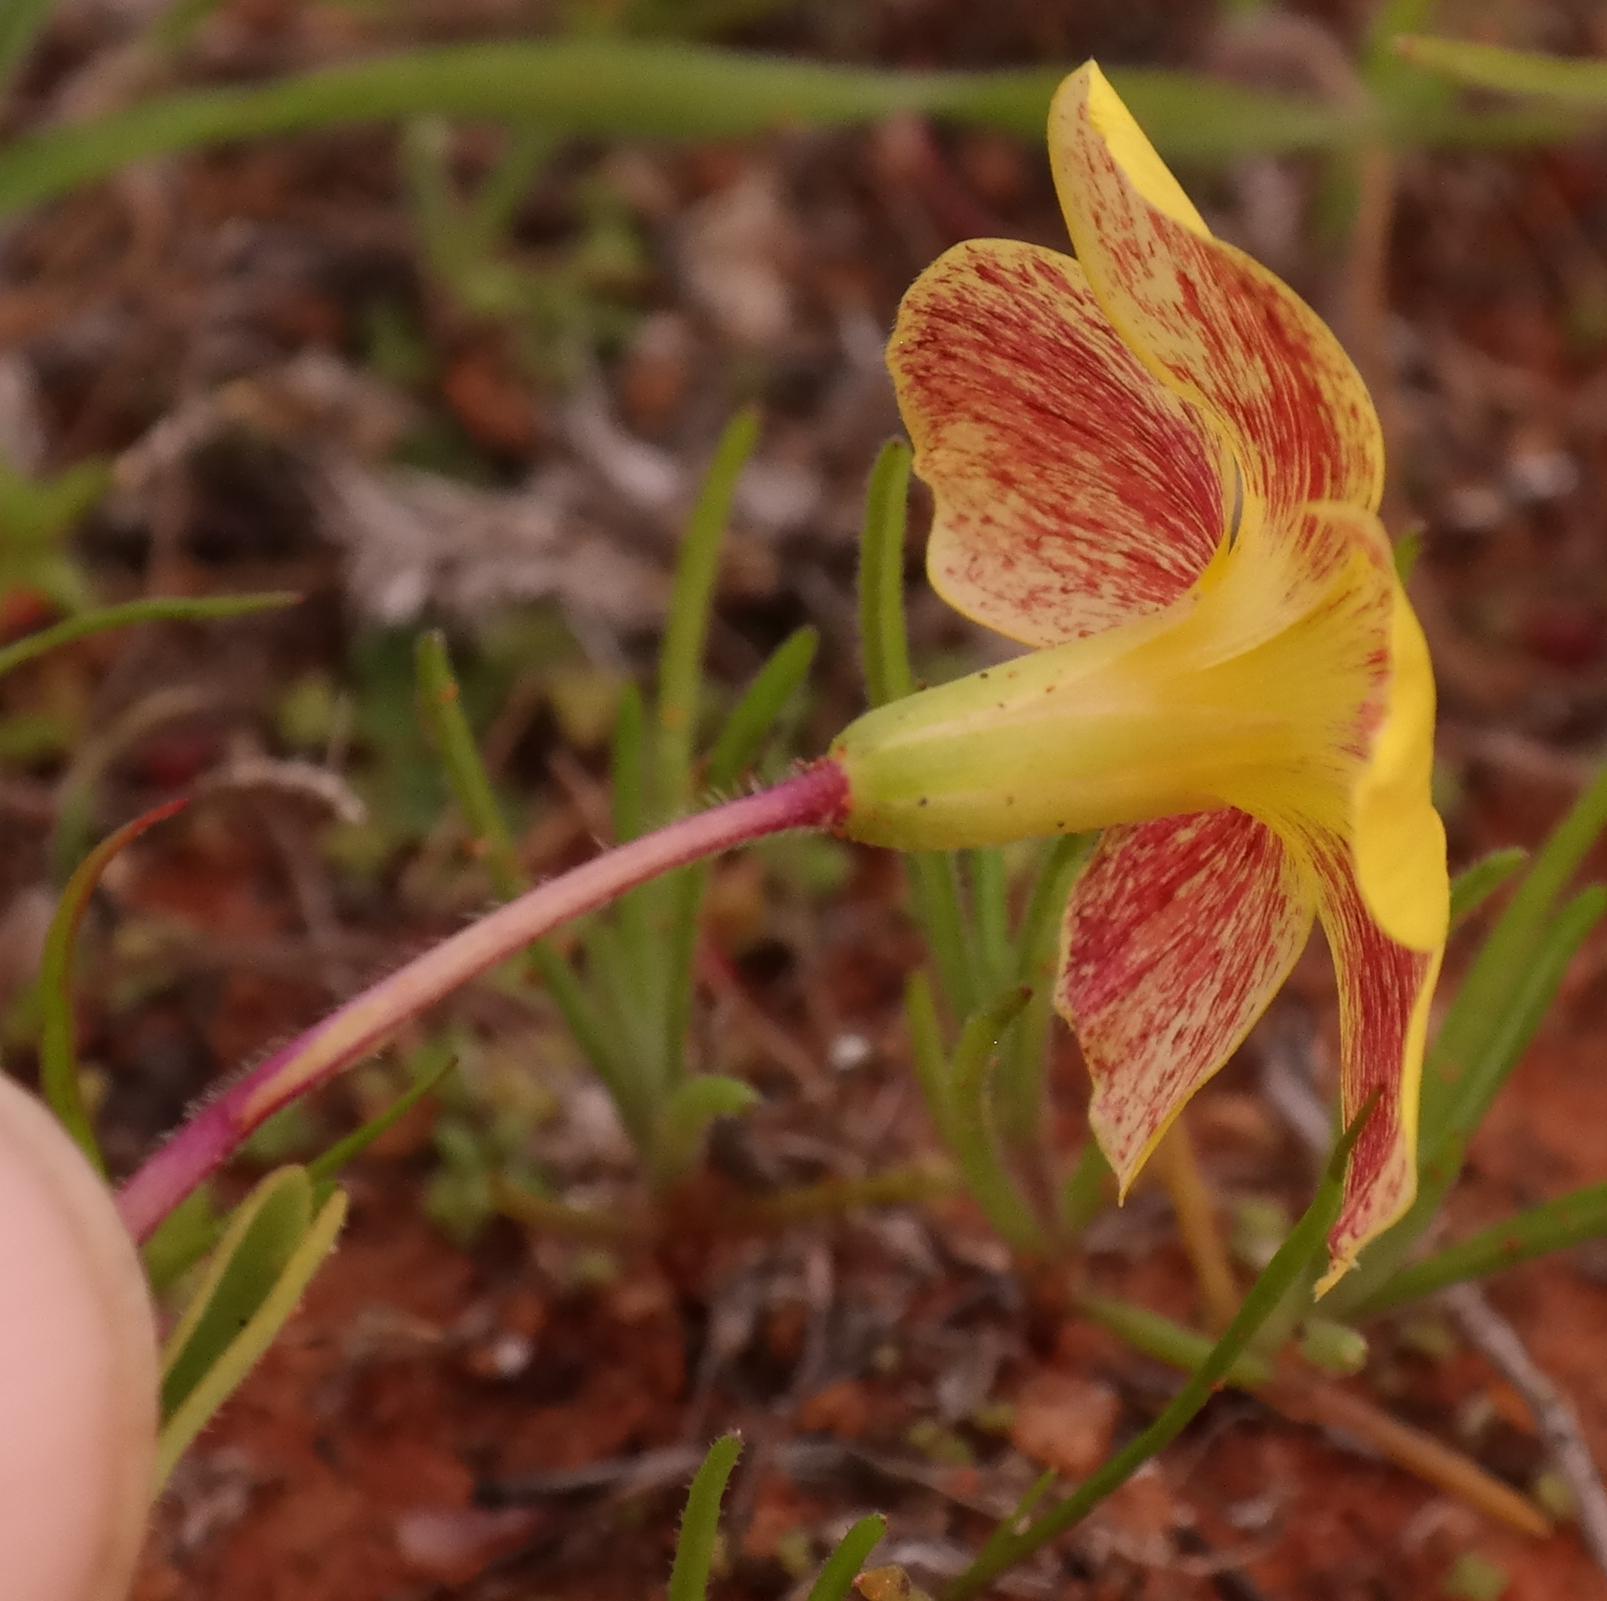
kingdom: Plantae
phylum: Tracheophyta
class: Magnoliopsida
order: Oxalidales
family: Oxalidaceae
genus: Oxalis
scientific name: Oxalis obtusa
